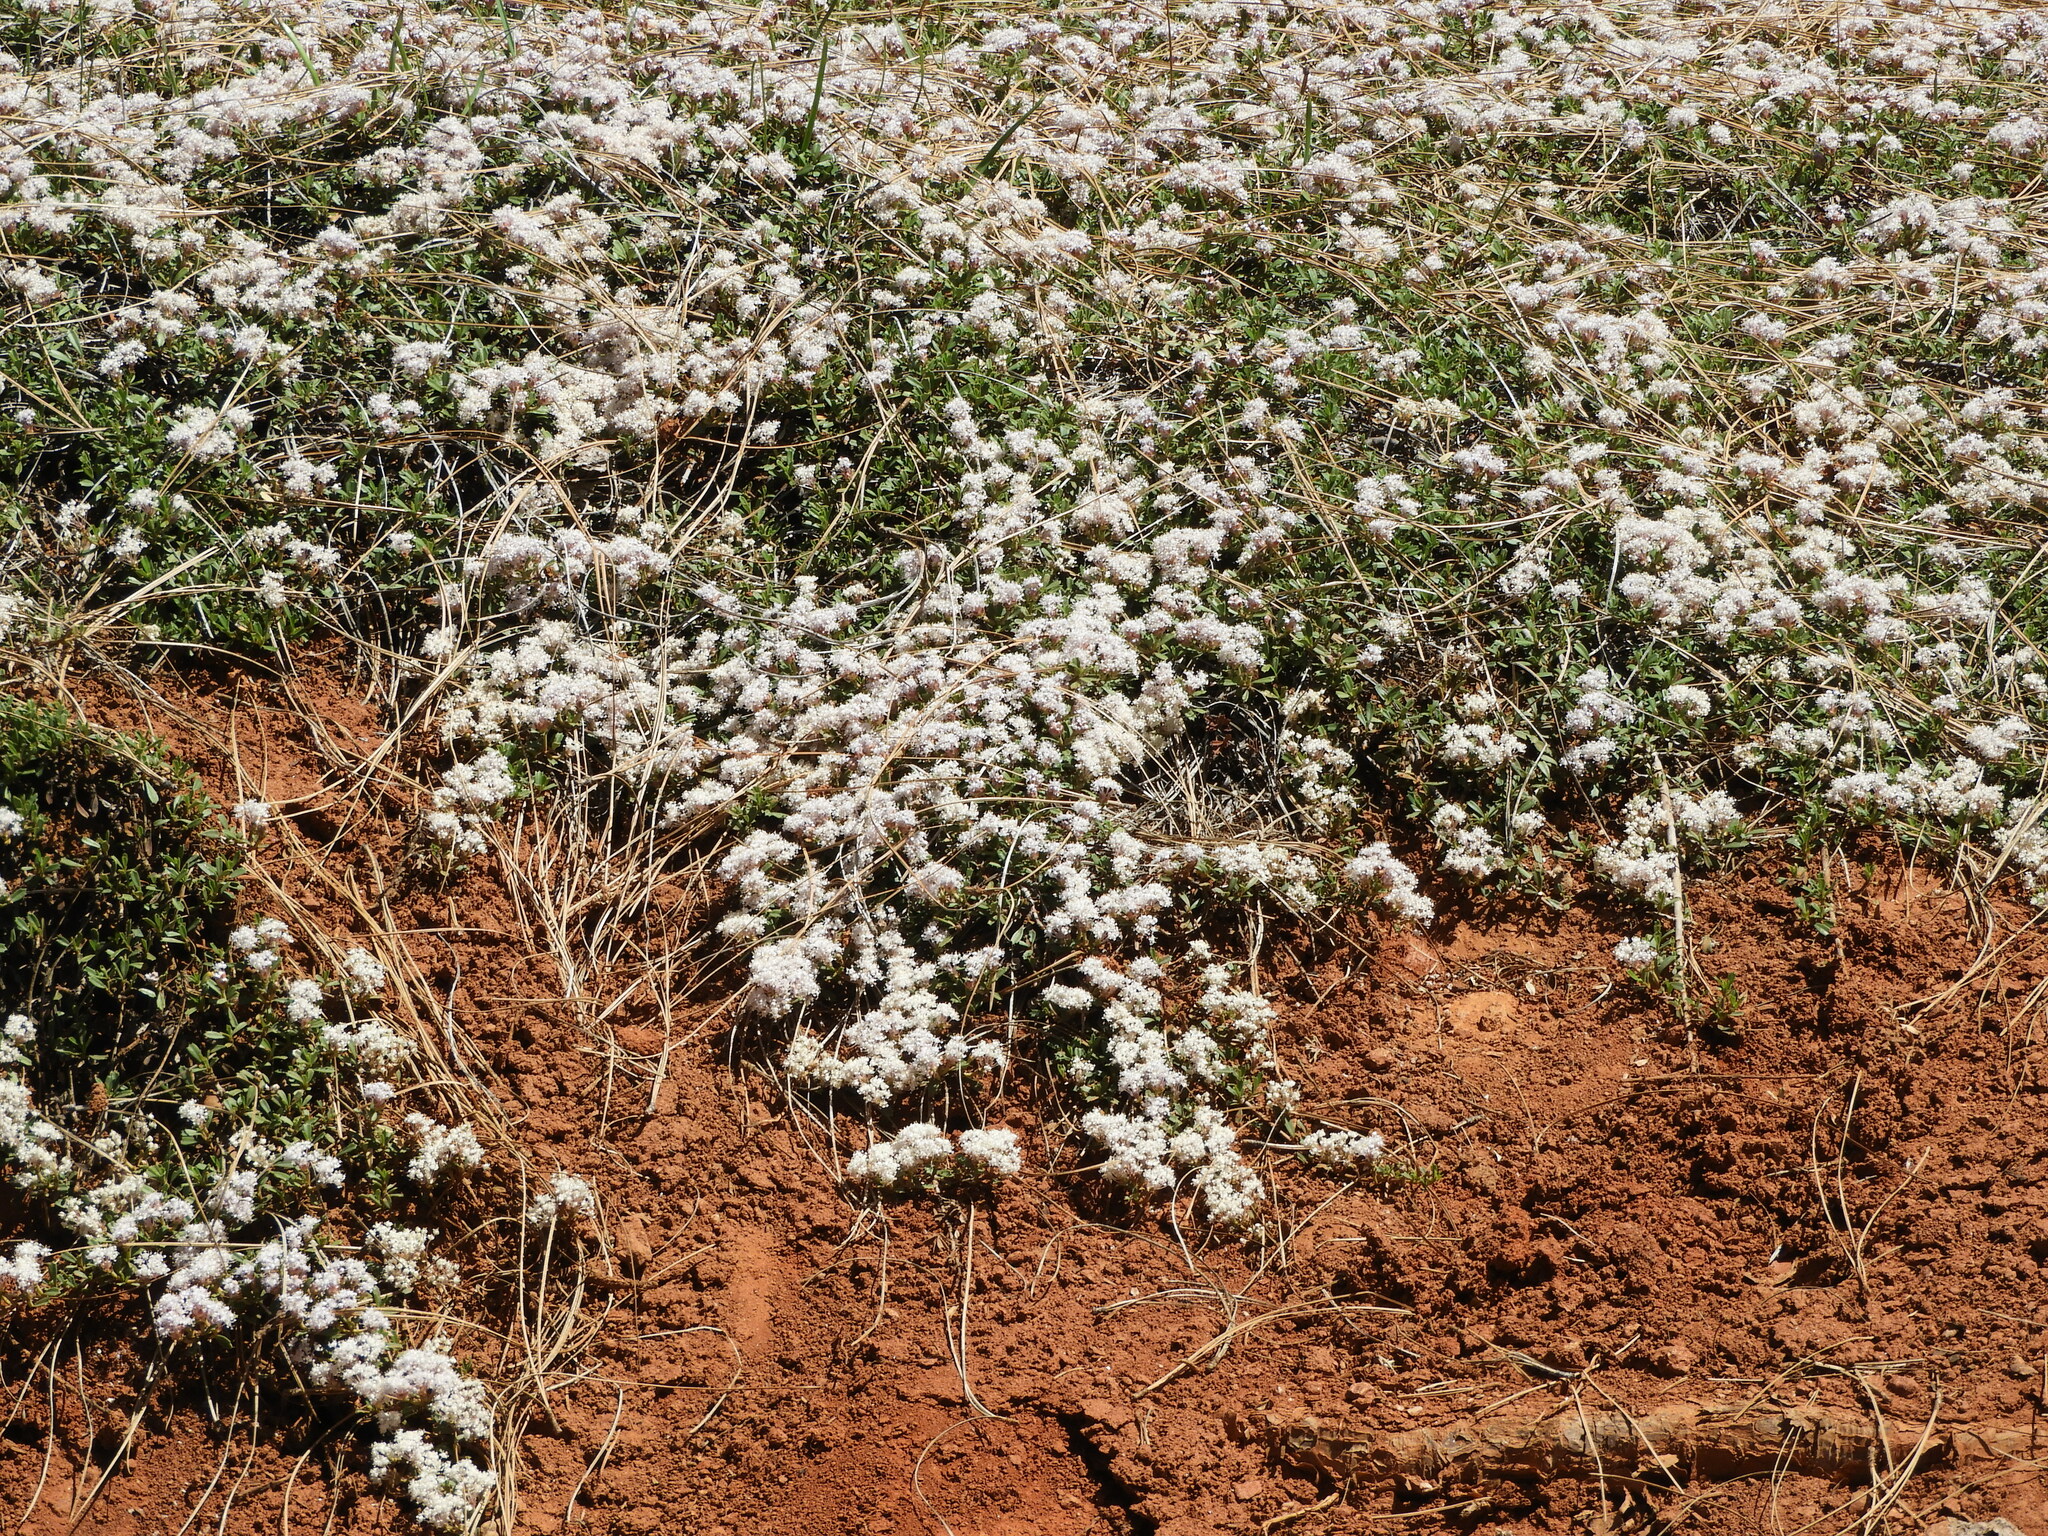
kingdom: Plantae
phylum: Tracheophyta
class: Magnoliopsida
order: Rosales
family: Rhamnaceae
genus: Ceanothus
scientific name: Ceanothus prostratus
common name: Mahala-mat
